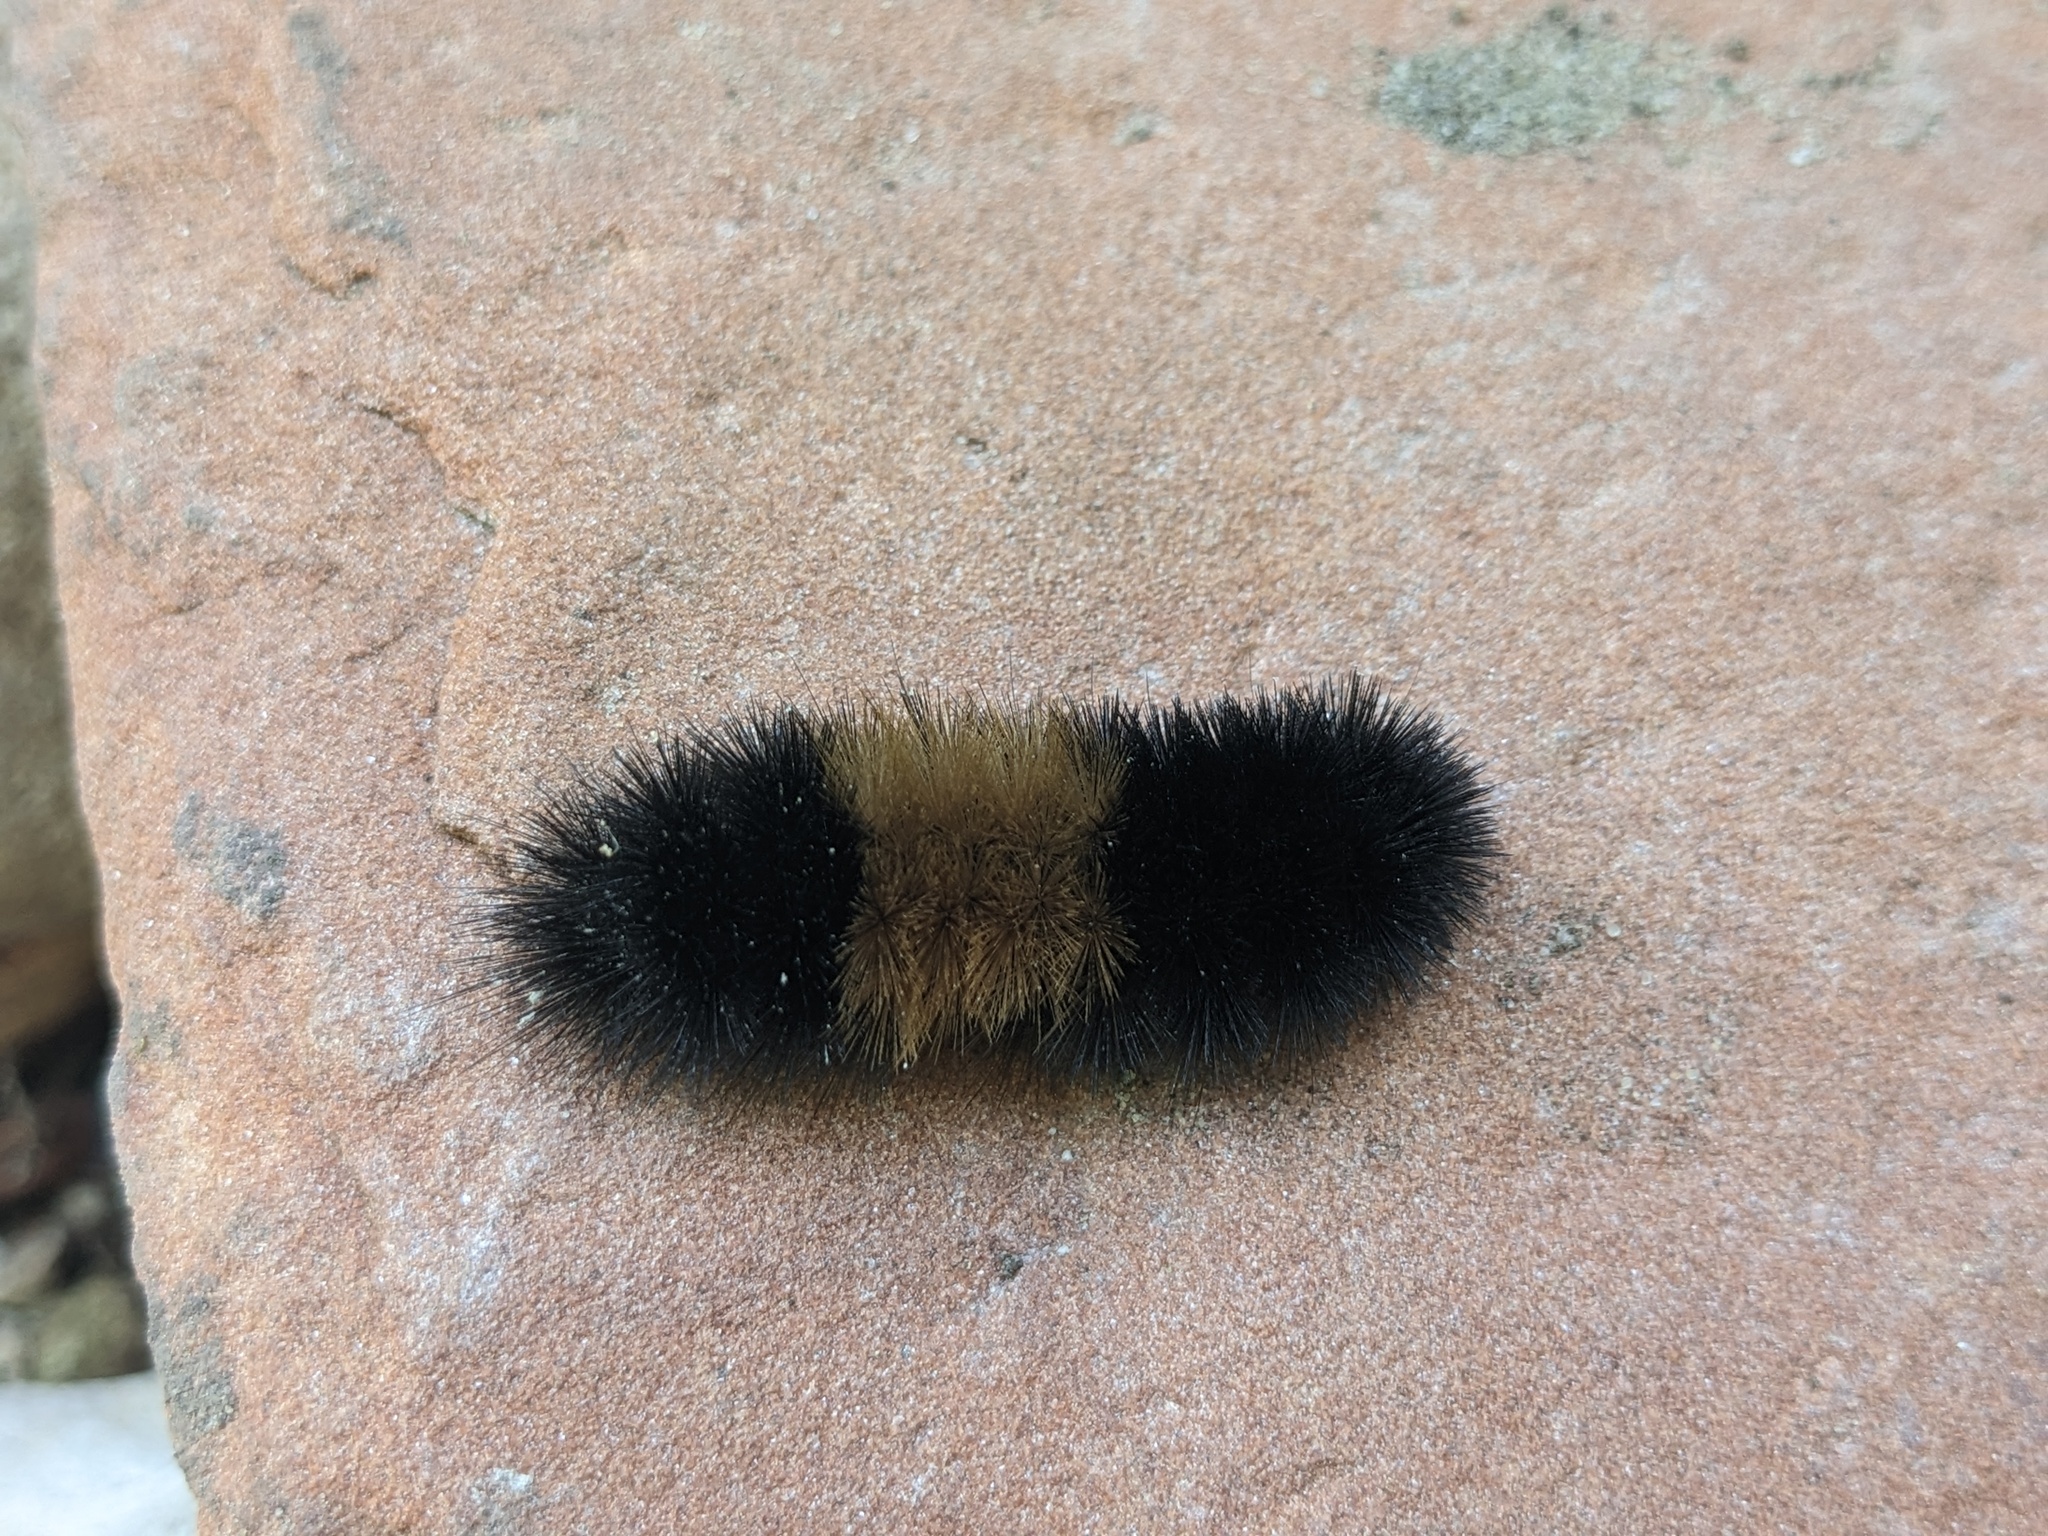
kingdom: Animalia
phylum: Arthropoda
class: Insecta
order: Lepidoptera
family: Erebidae
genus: Pyrrharctia
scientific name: Pyrrharctia isabella
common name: Isabella tiger moth
